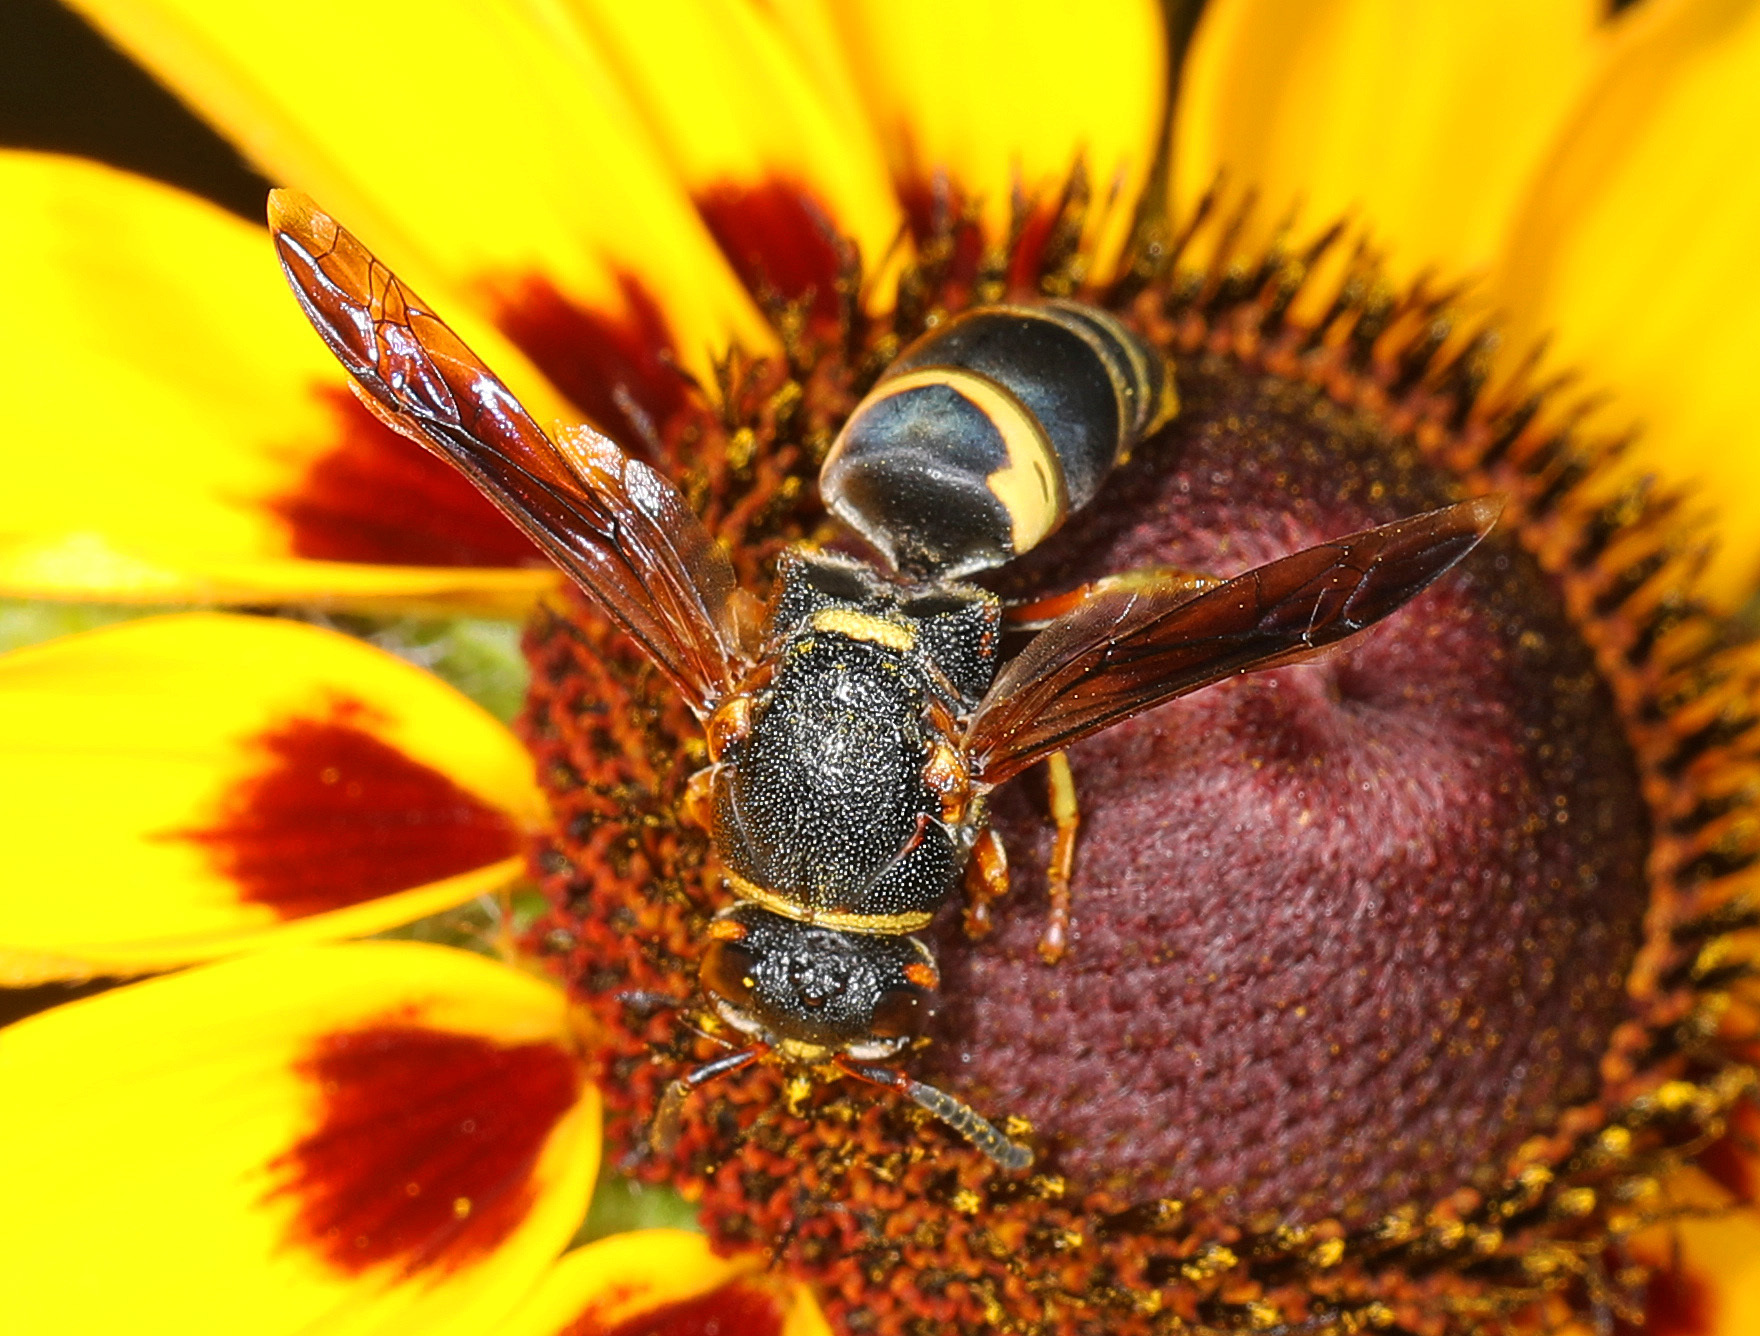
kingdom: Animalia
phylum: Arthropoda
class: Insecta
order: Hymenoptera
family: Eumenidae
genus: Euodynerus
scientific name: Euodynerus hidalgo
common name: Wasp
